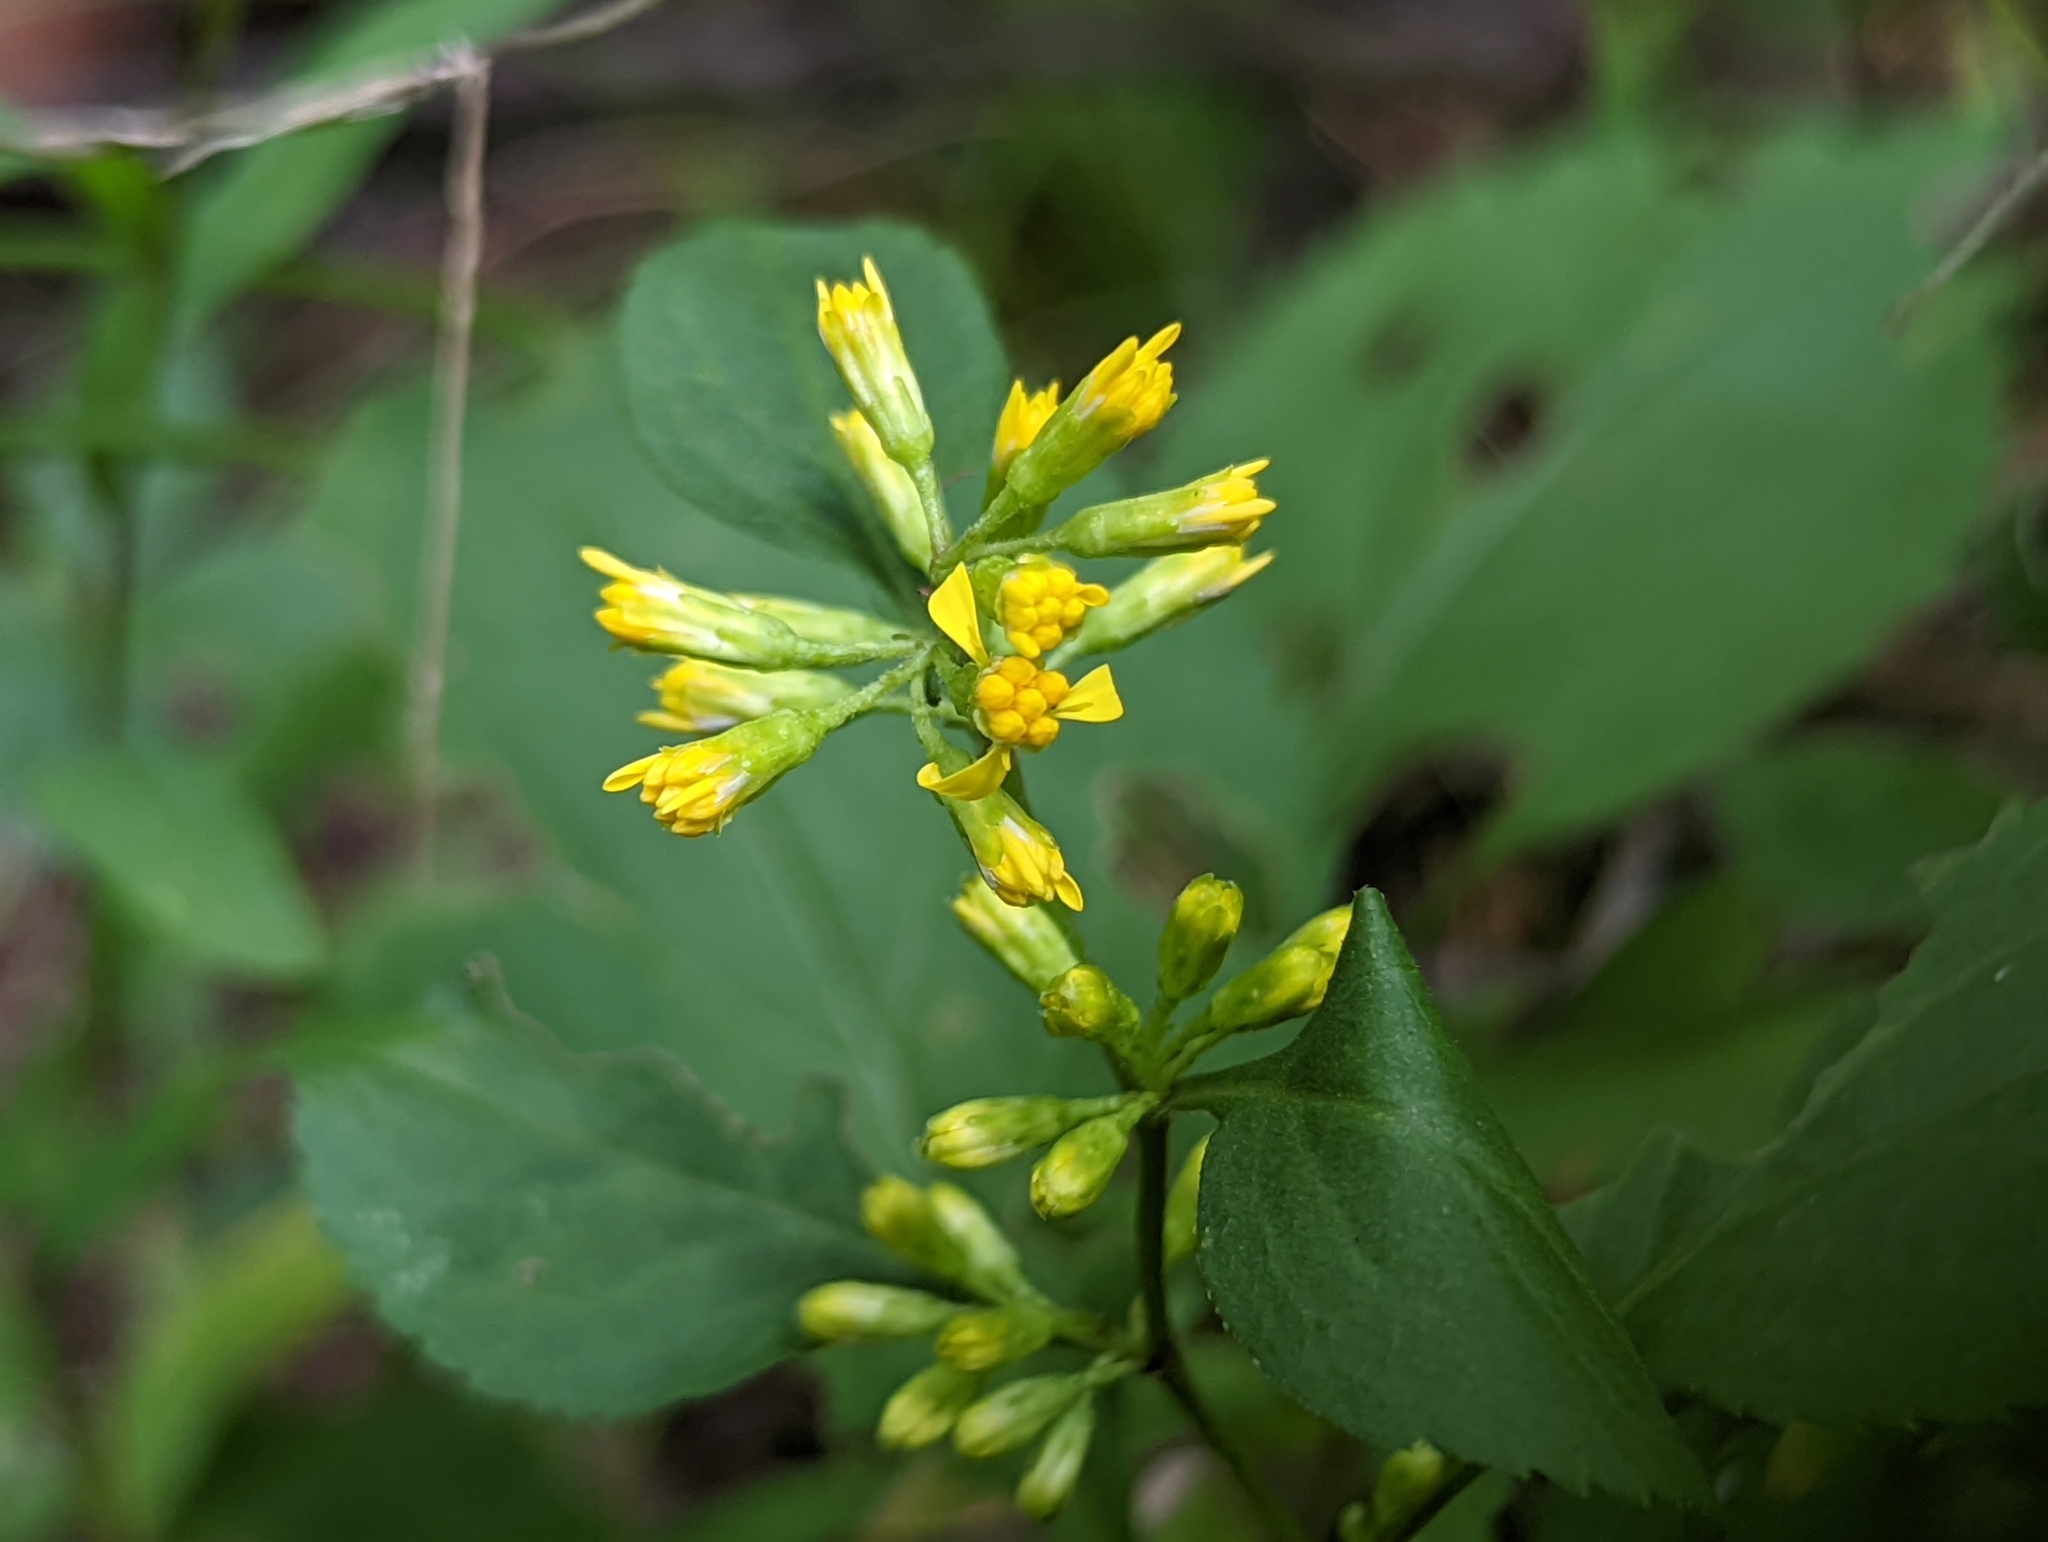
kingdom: Plantae
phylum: Tracheophyta
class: Magnoliopsida
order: Asterales
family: Asteraceae
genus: Solidago
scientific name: Solidago flexicaulis
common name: Zig-zag goldenrod
